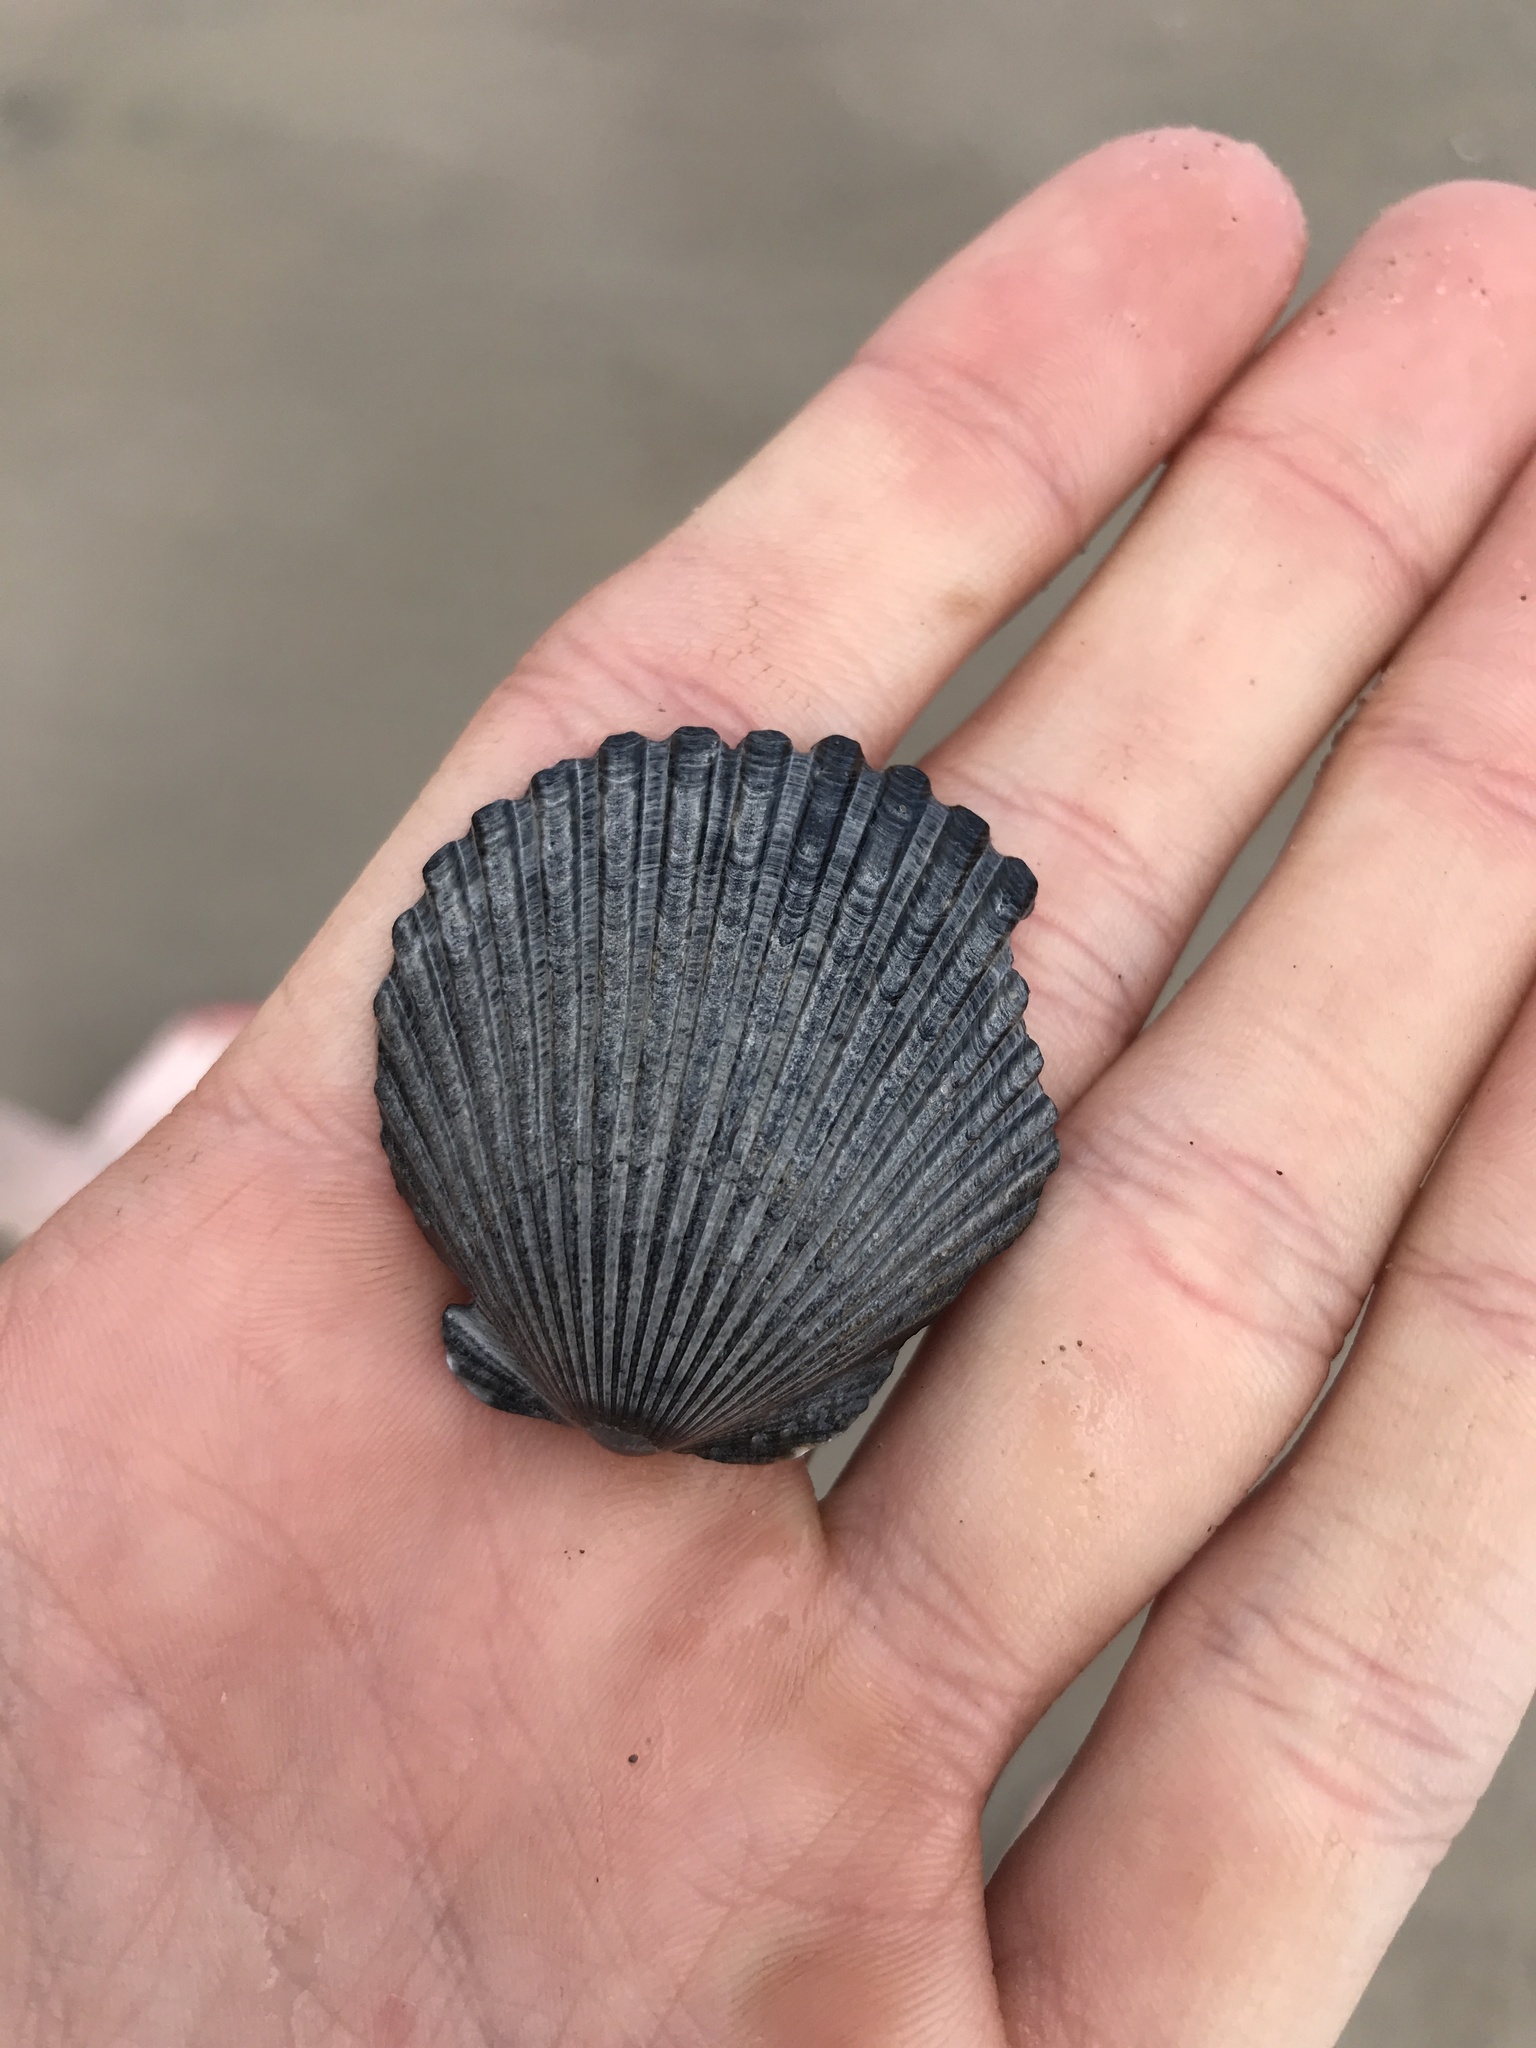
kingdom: Animalia
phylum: Mollusca
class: Bivalvia
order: Pectinida
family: Pectinidae
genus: Argopecten
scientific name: Argopecten irradians
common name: Atlantic bay scallop
